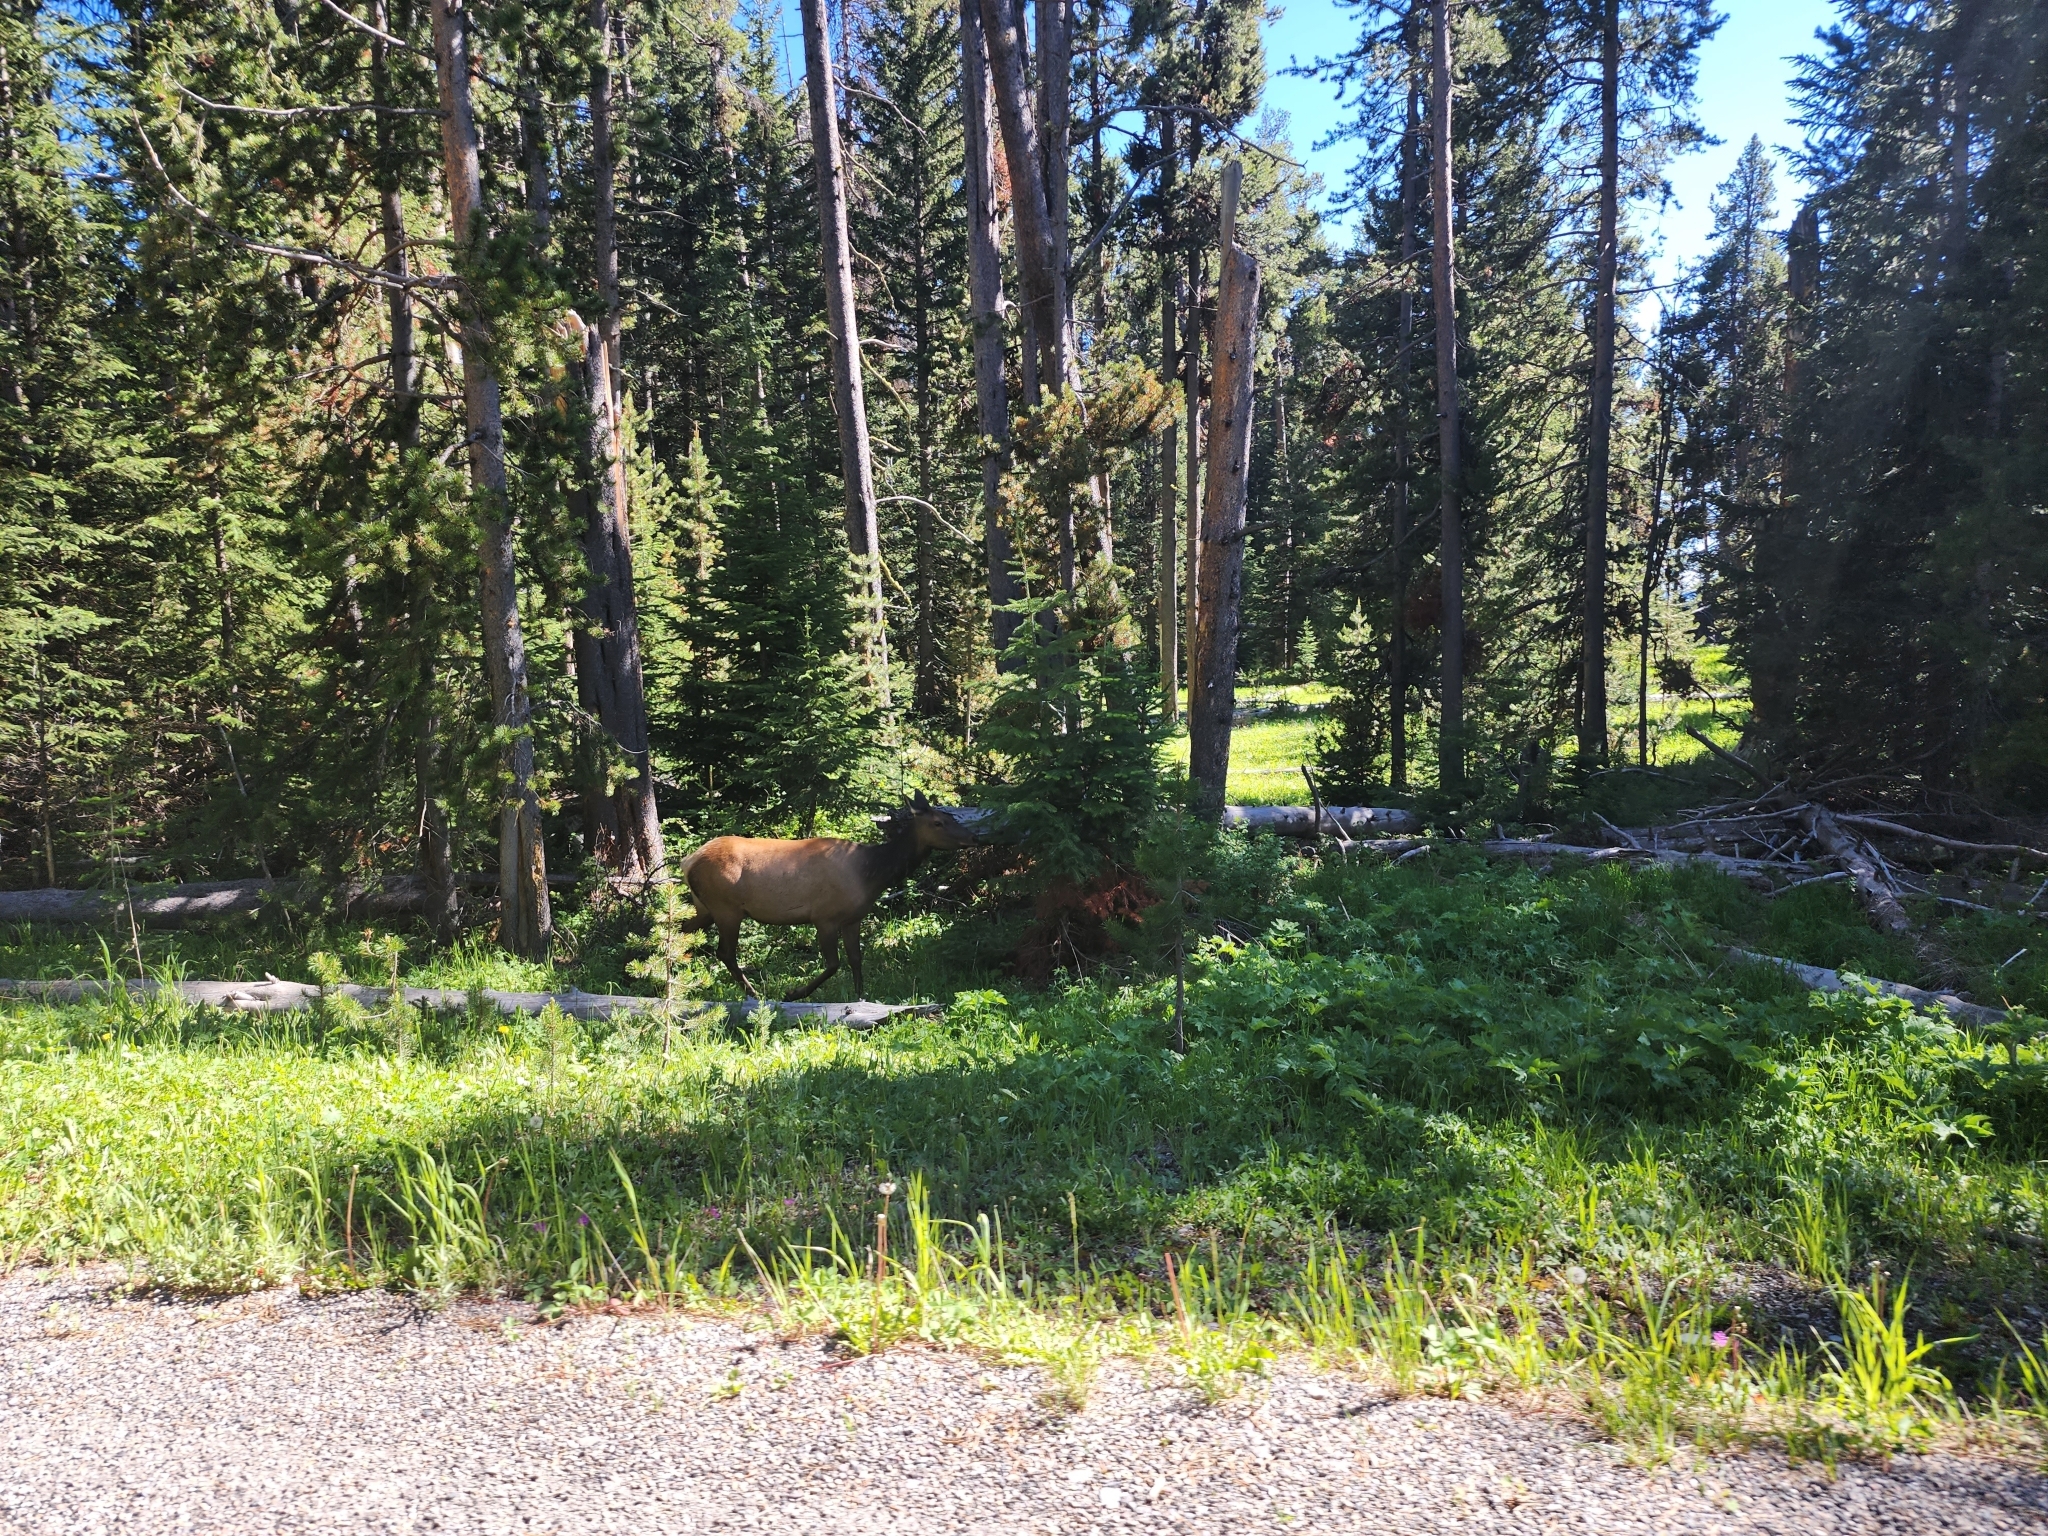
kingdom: Animalia
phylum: Chordata
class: Mammalia
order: Artiodactyla
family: Cervidae
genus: Cervus
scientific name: Cervus elaphus
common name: Red deer
